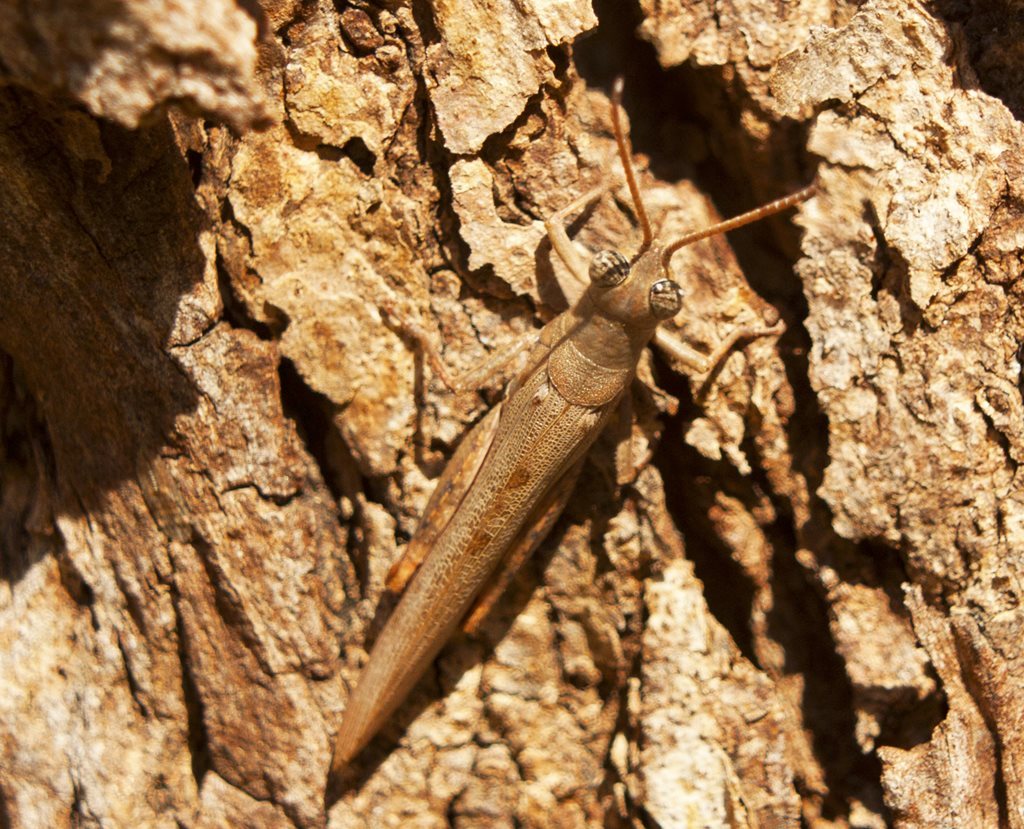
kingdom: Animalia
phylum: Arthropoda
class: Insecta
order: Orthoptera
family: Acrididae
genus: Pardillana
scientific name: Pardillana limbata
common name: Common pardillana
